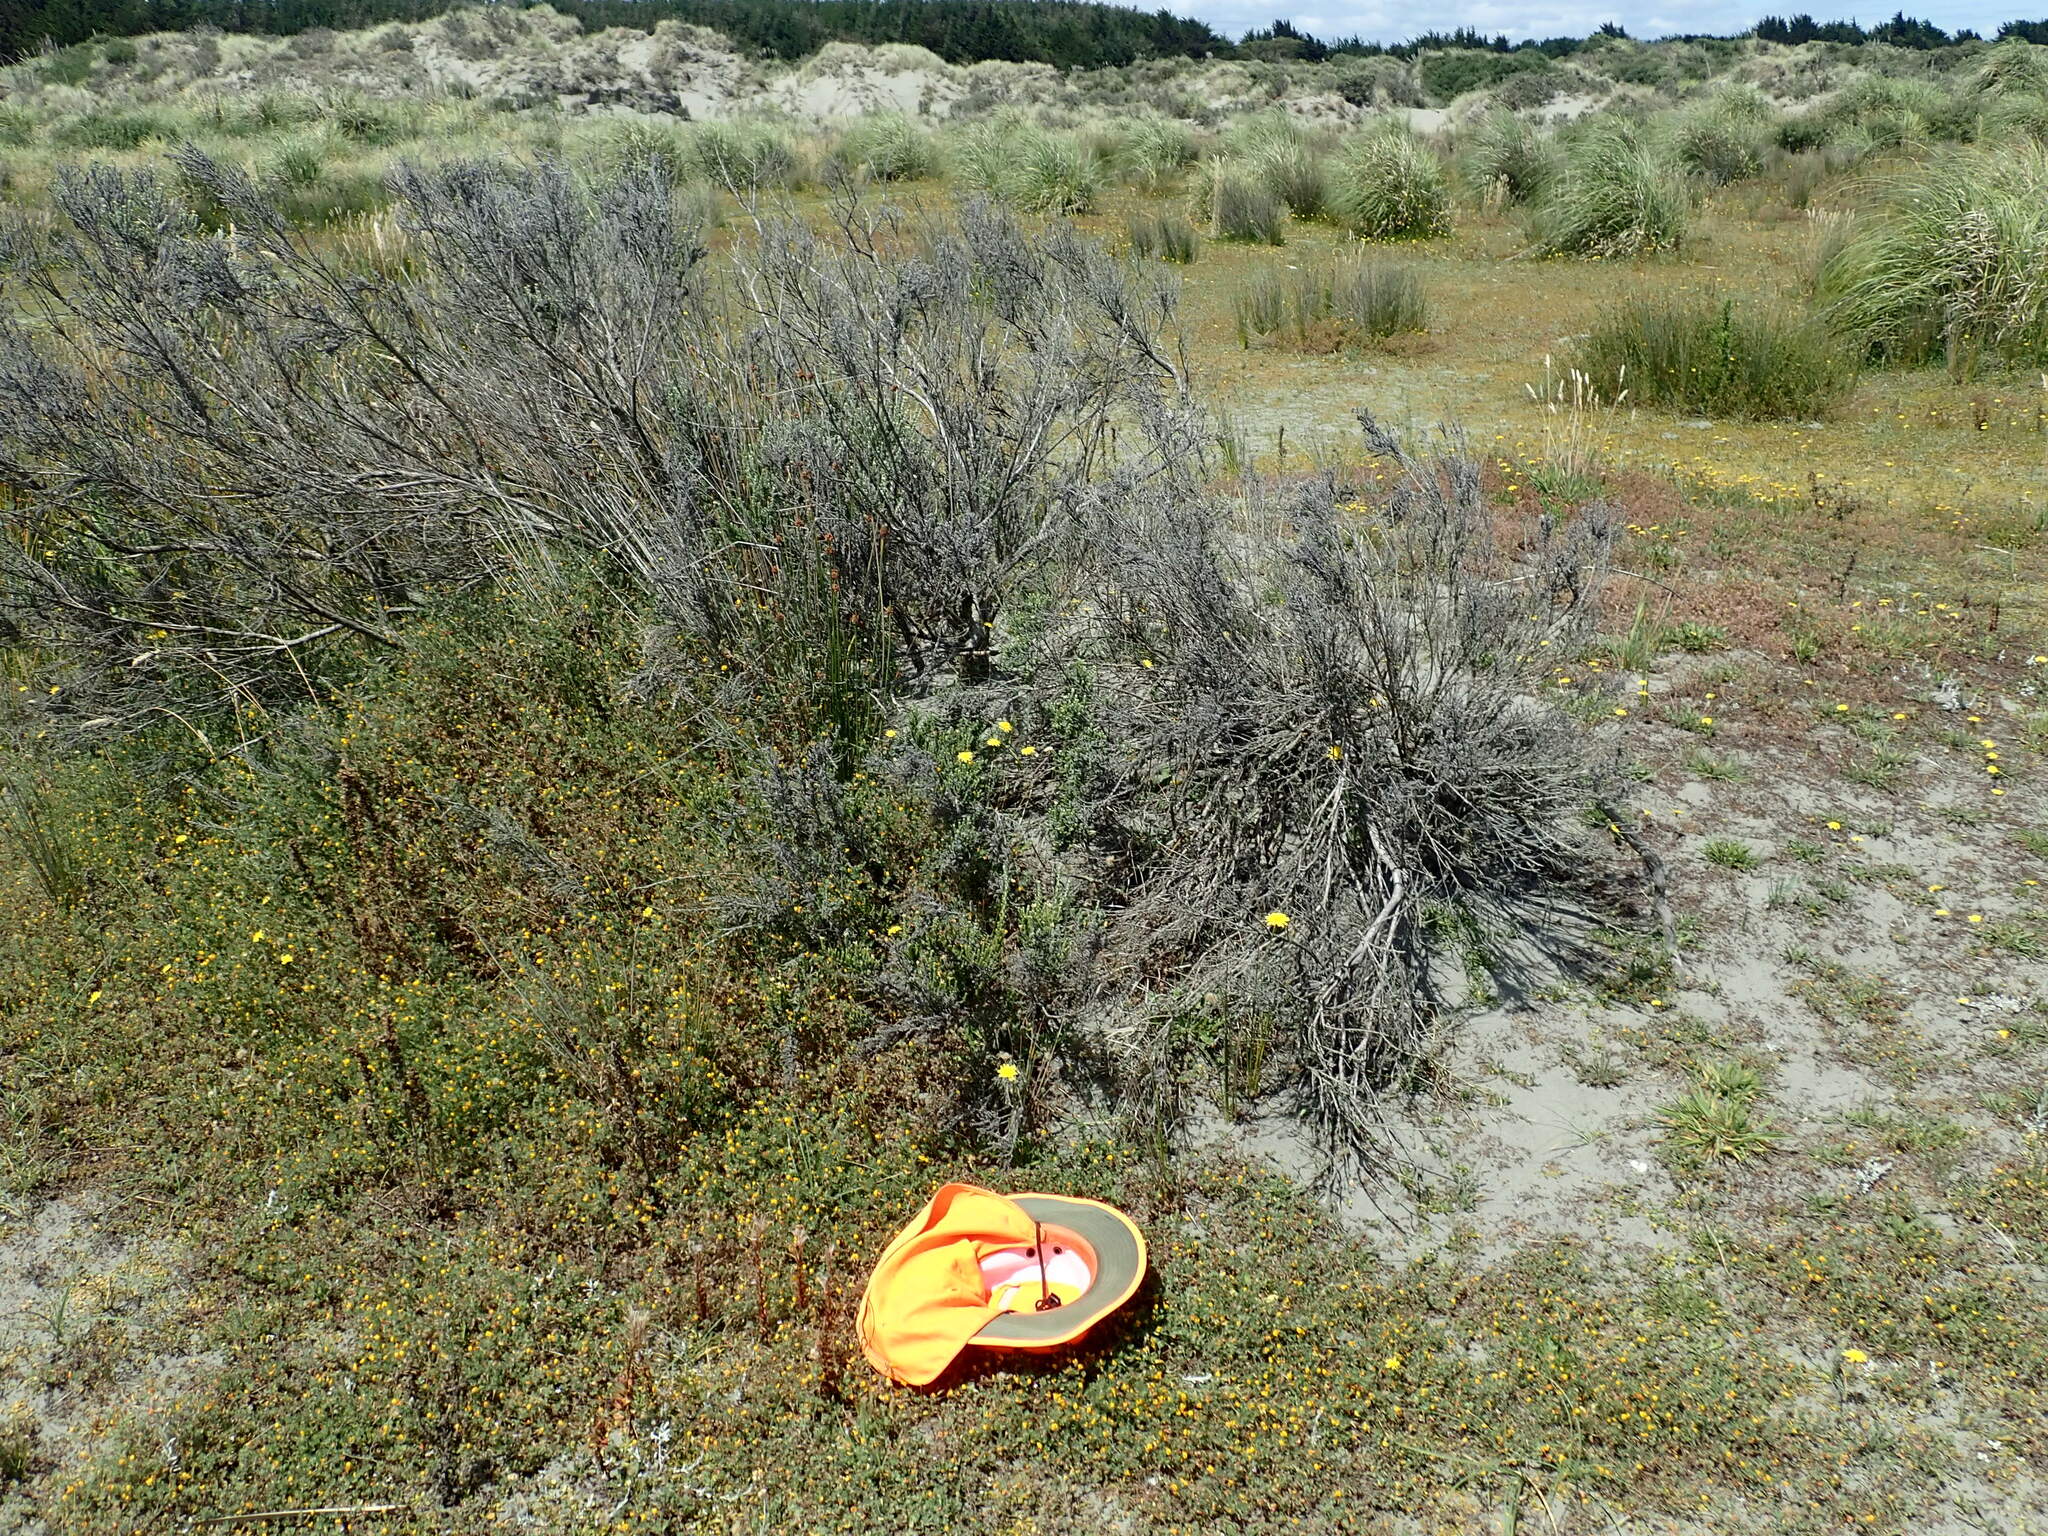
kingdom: Plantae
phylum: Tracheophyta
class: Magnoliopsida
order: Myrtales
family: Onagraceae
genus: Epilobium
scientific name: Epilobium billardiereanum
